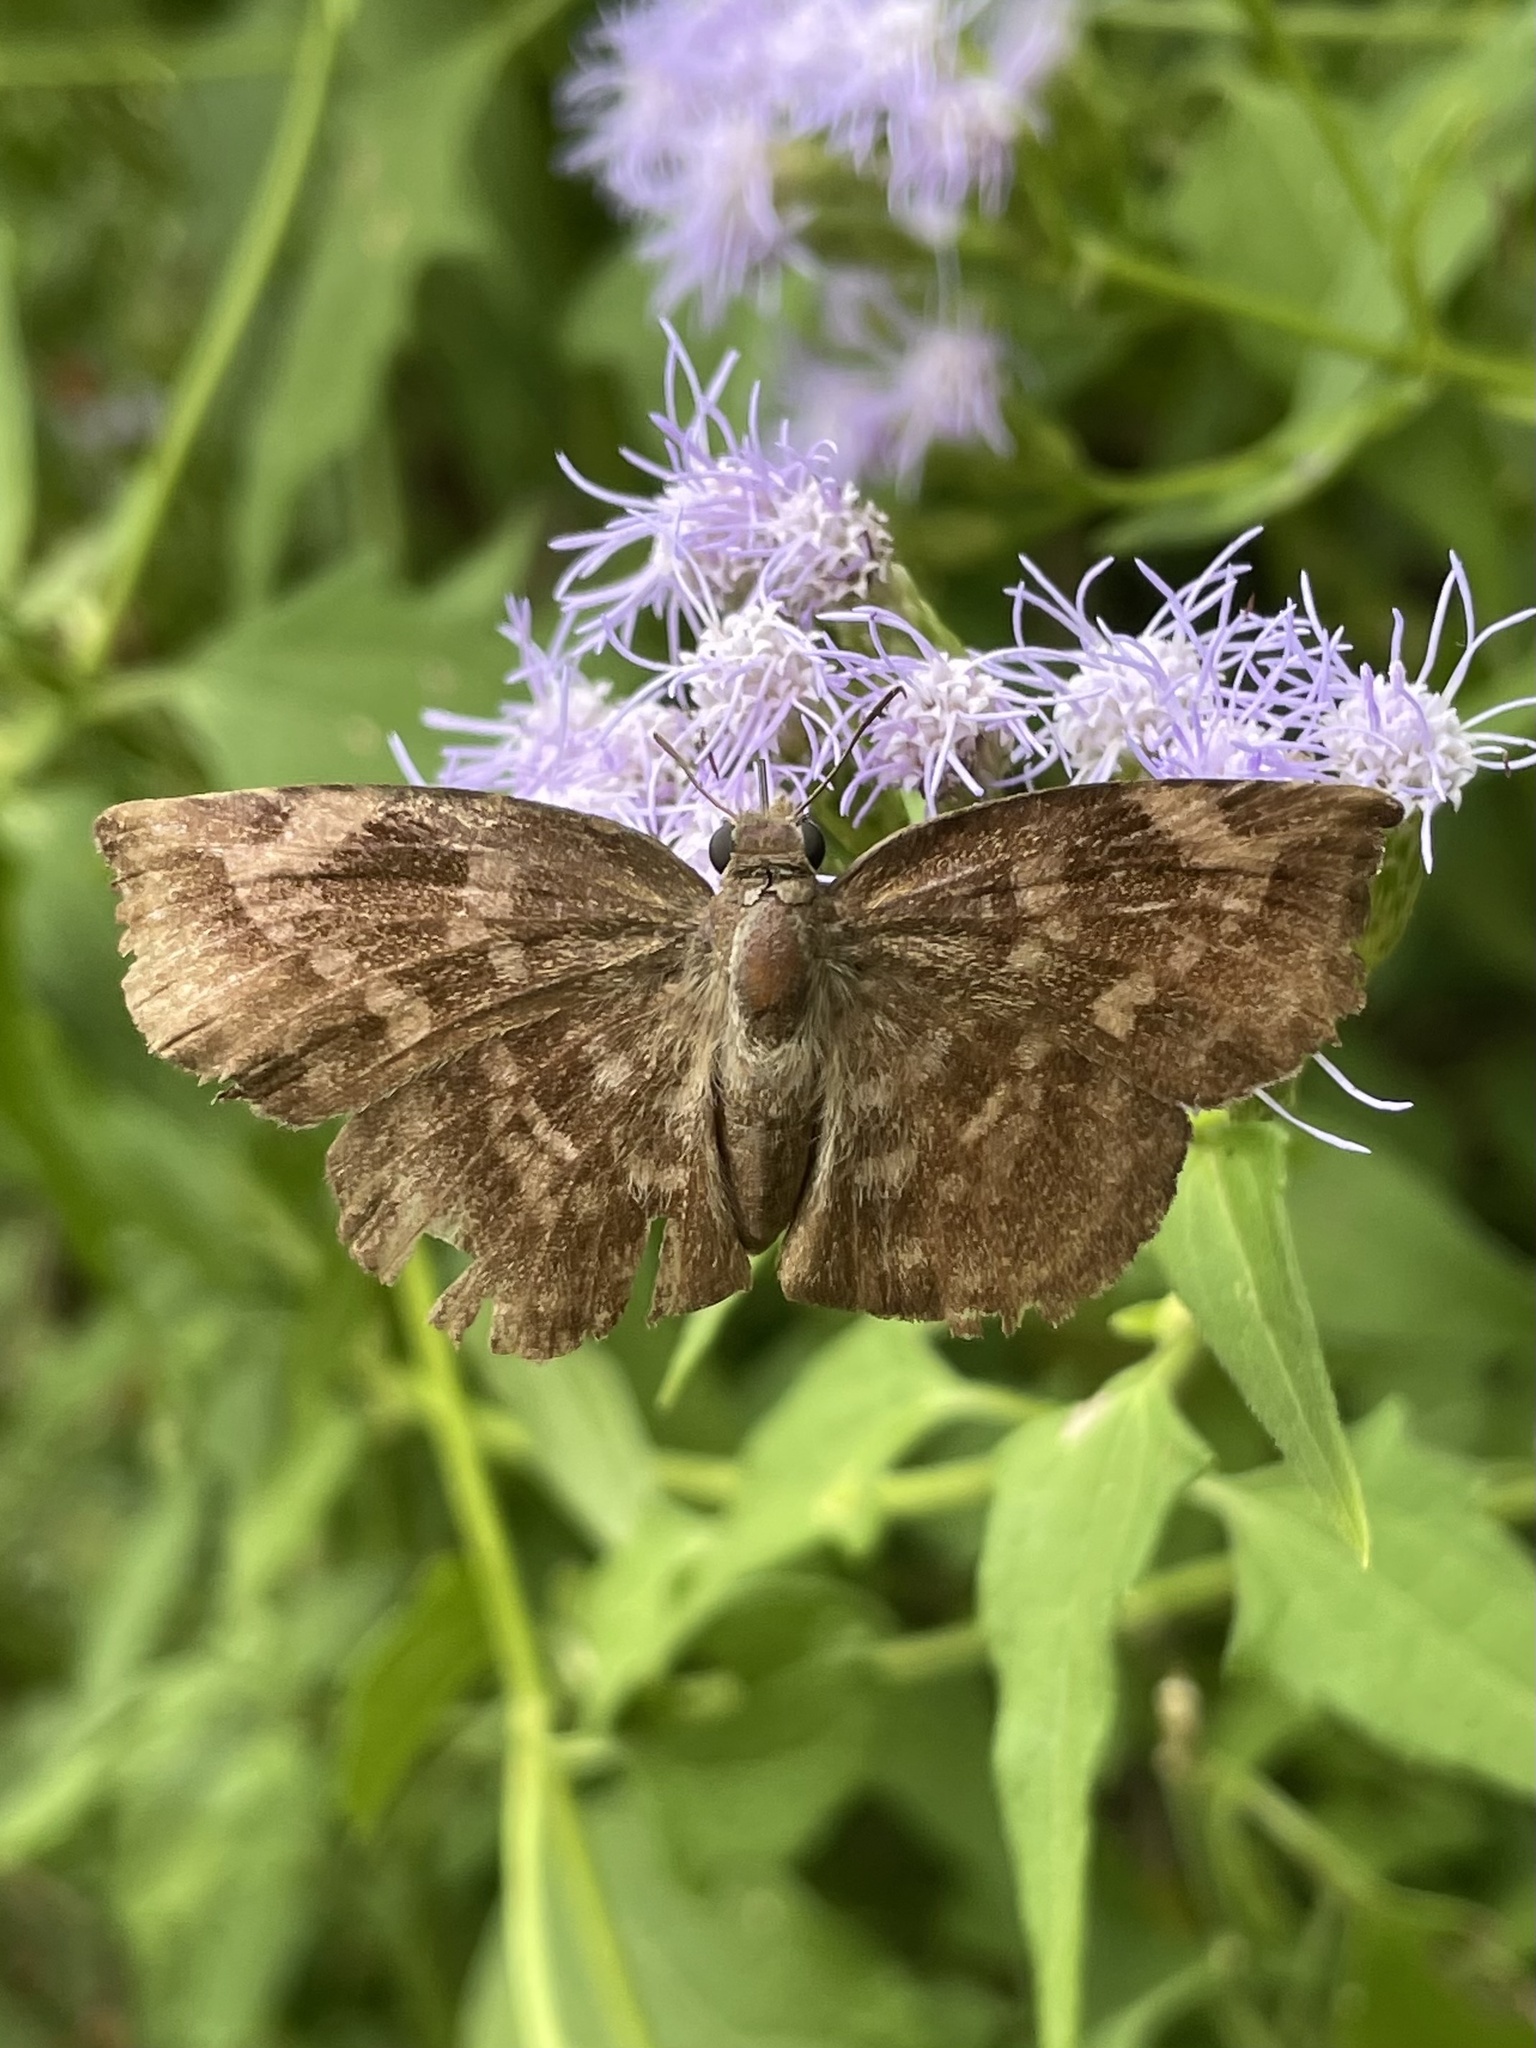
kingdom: Animalia
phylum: Arthropoda
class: Insecta
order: Lepidoptera
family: Hesperiidae
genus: Achlyodes
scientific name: Achlyodes thraso
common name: Sickle-winged skipper
